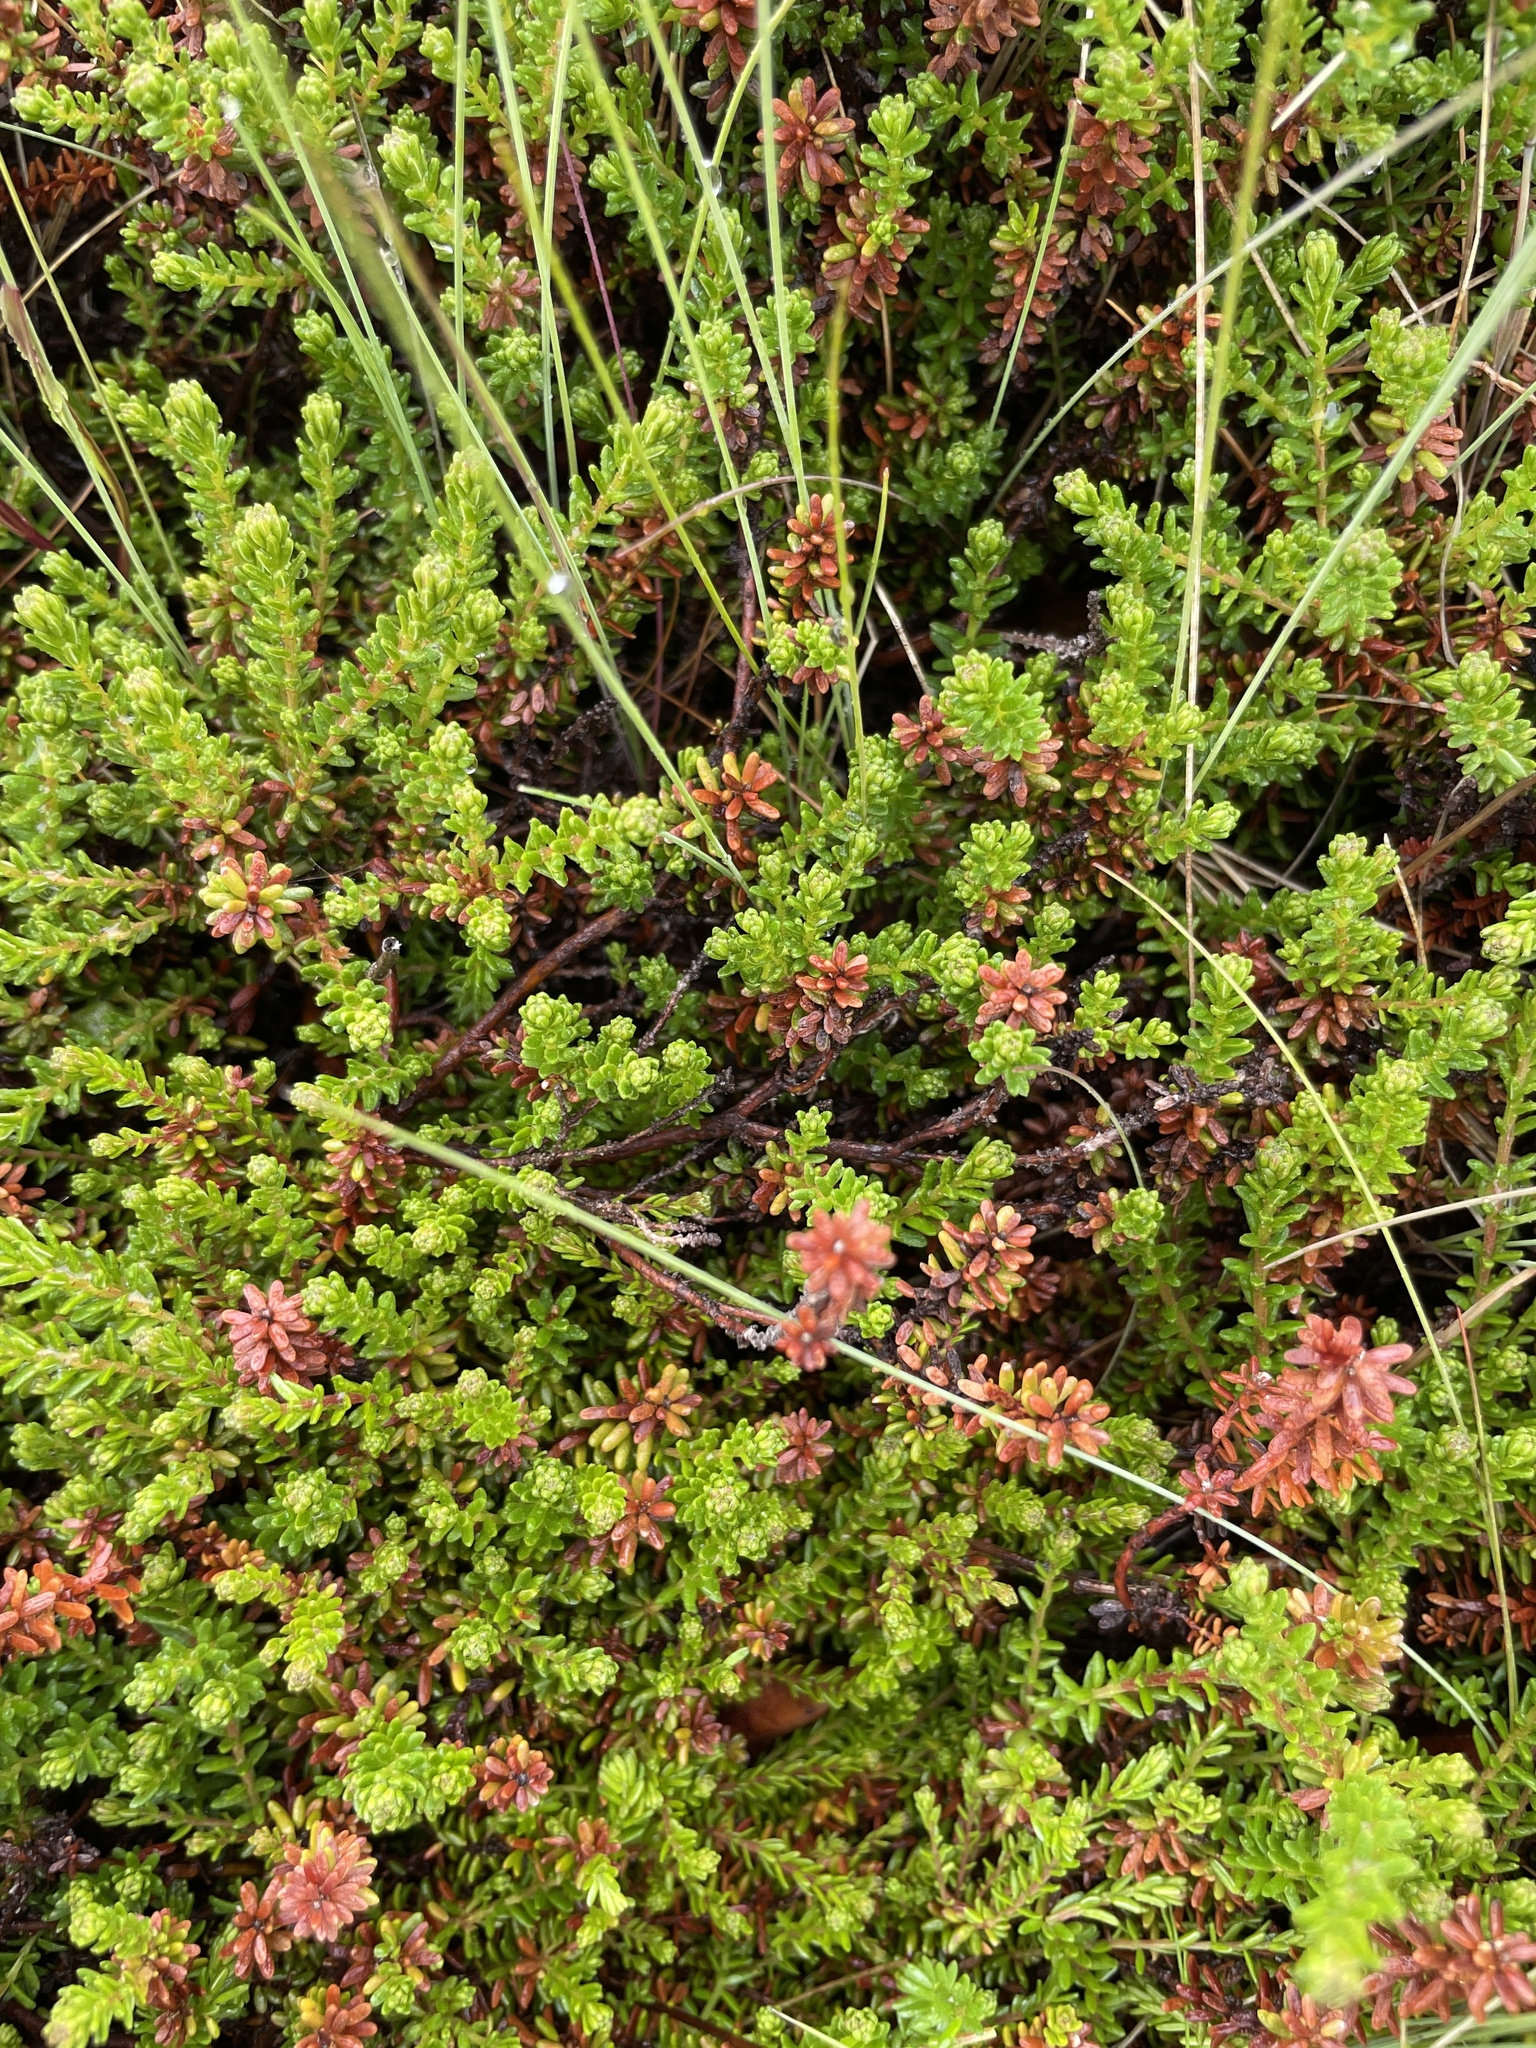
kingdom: Plantae
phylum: Tracheophyta
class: Magnoliopsida
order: Ericales
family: Ericaceae
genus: Empetrum
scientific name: Empetrum nigrum
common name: Black crowberry
